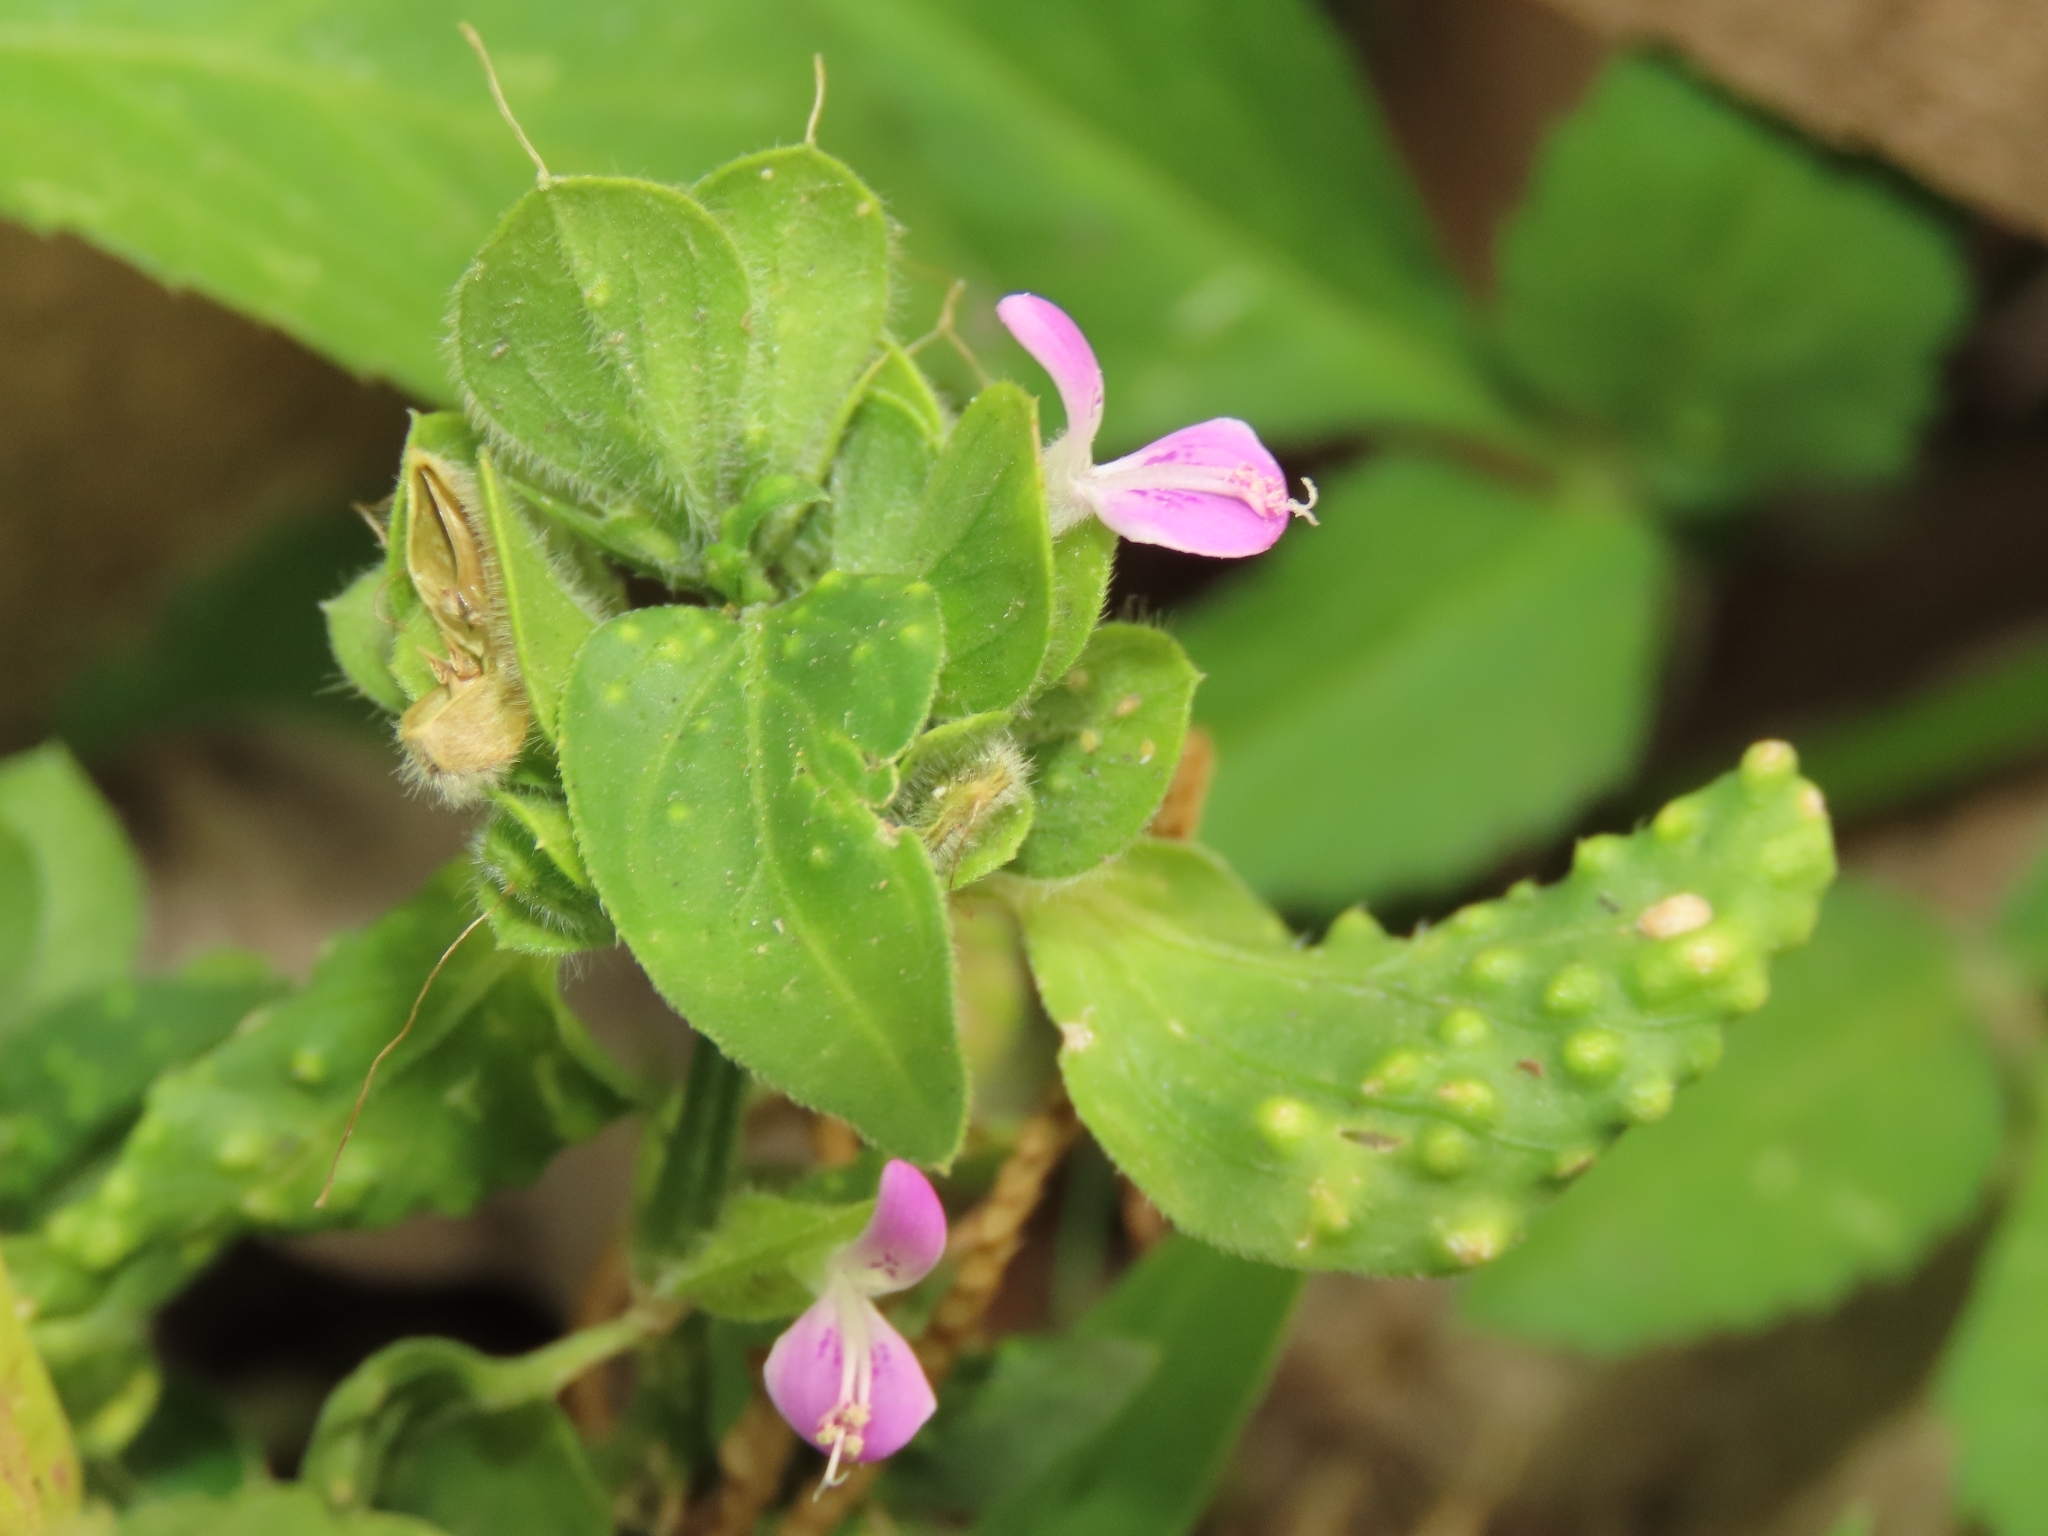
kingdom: Plantae
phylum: Tracheophyta
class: Magnoliopsida
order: Lamiales
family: Acanthaceae
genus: Dicliptera
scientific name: Dicliptera chinensis
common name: Chinese foldwing
